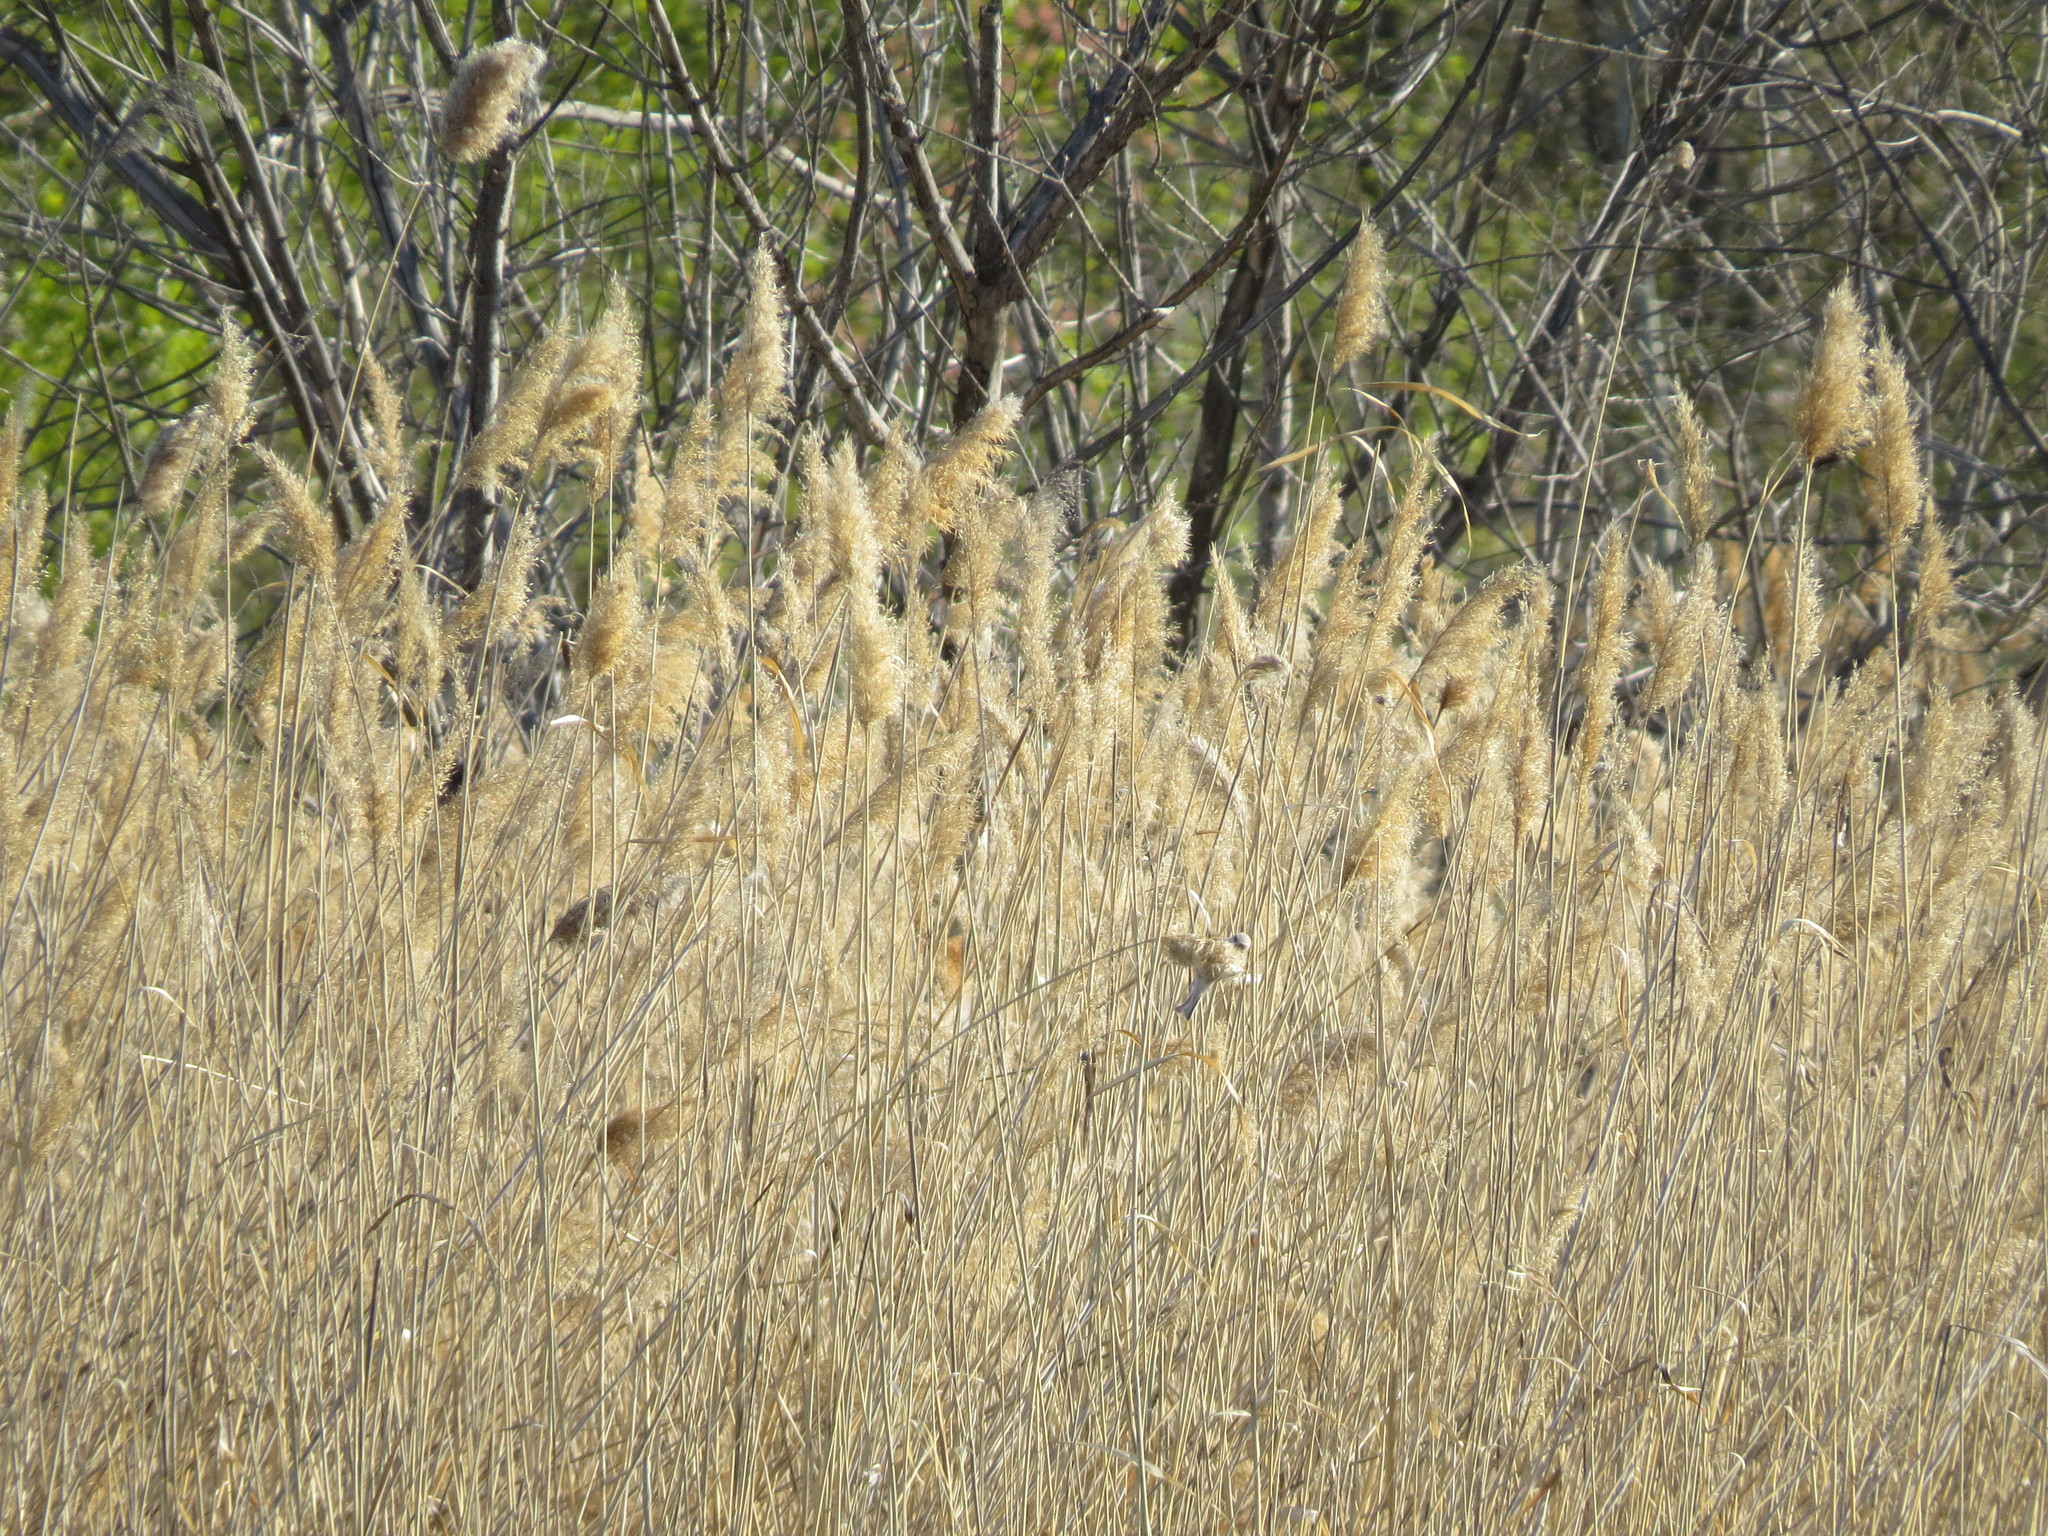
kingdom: Animalia
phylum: Chordata
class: Aves
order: Passeriformes
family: Remizidae
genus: Remiz
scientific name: Remiz pendulinus
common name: Eurasian penduline tit
